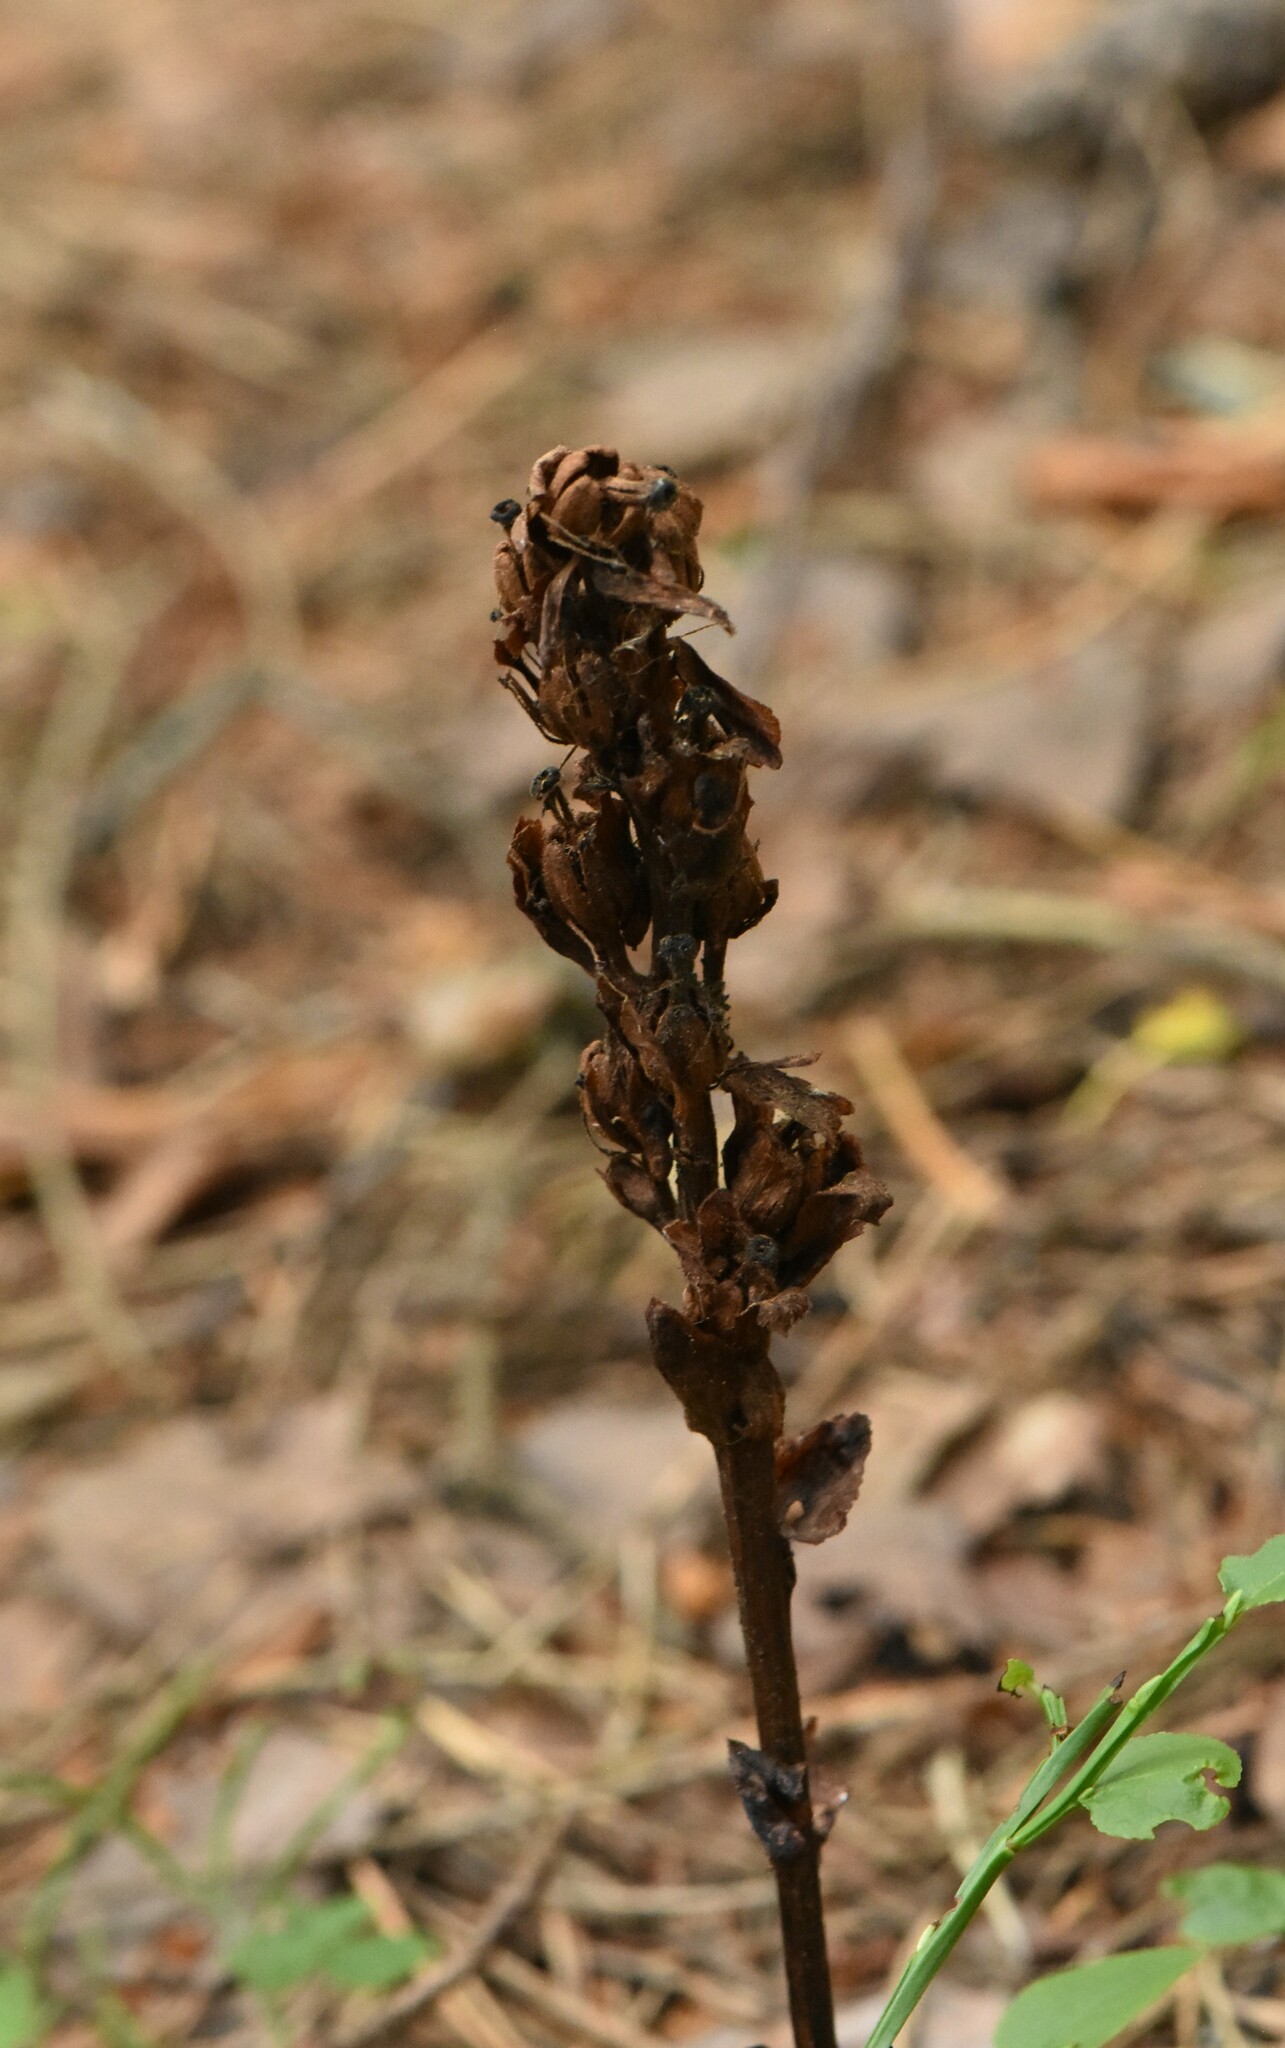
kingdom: Plantae
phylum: Tracheophyta
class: Magnoliopsida
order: Ericales
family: Ericaceae
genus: Hypopitys
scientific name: Hypopitys monotropa
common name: Yellow bird's-nest
